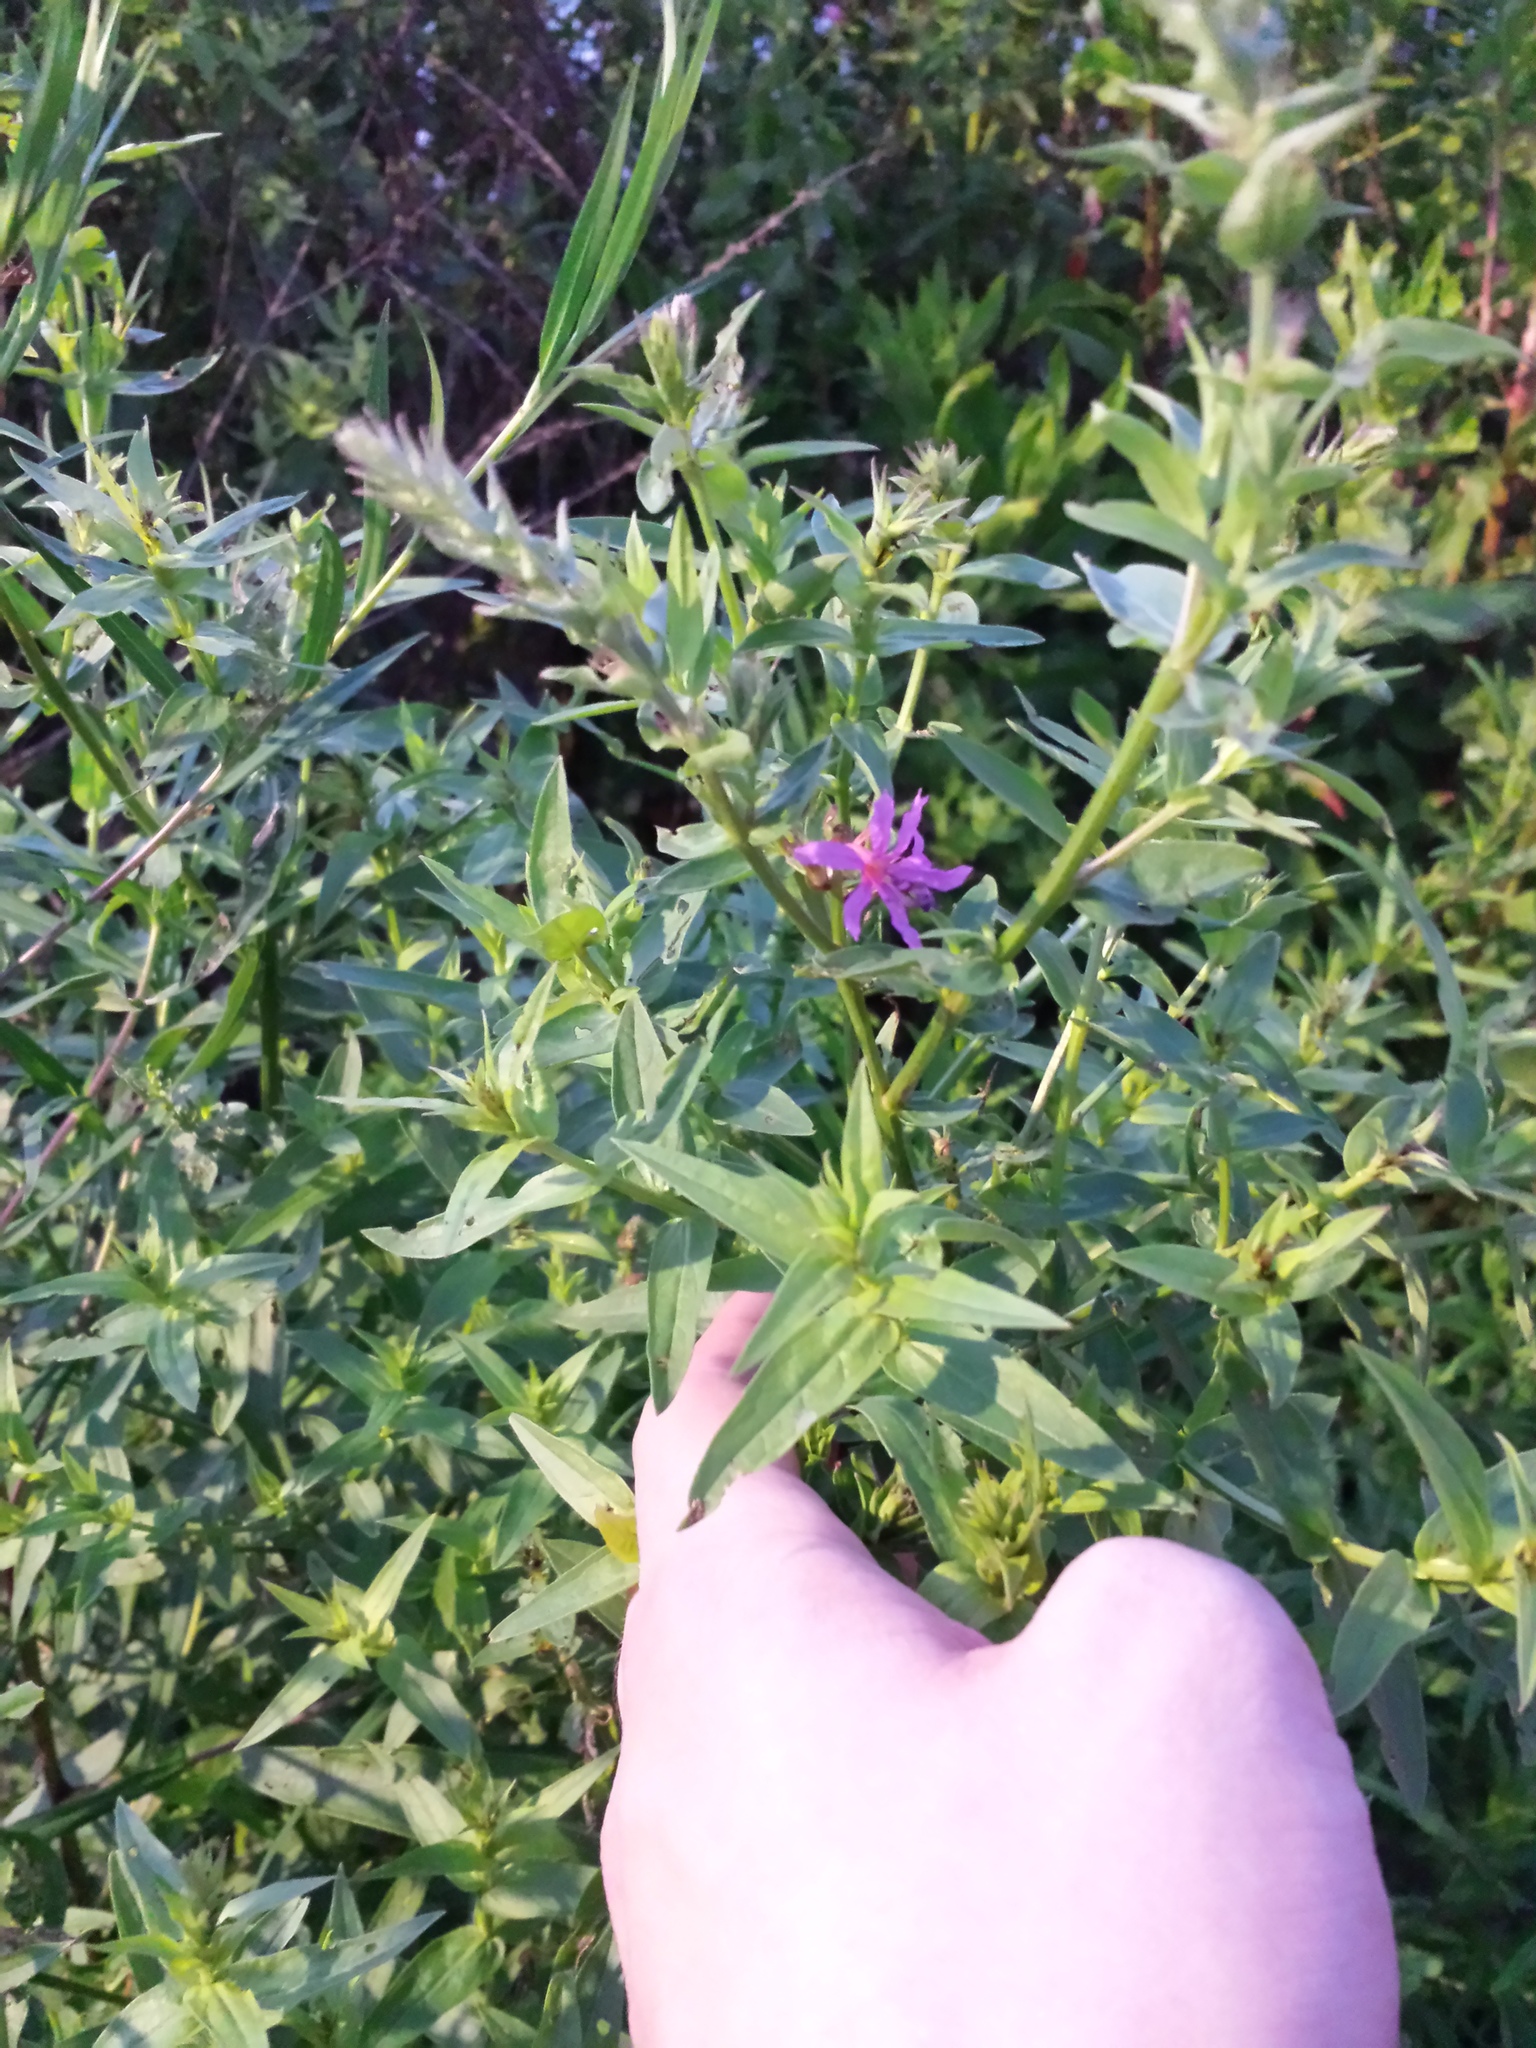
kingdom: Plantae
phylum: Tracheophyta
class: Magnoliopsida
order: Myrtales
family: Lythraceae
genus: Lythrum
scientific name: Lythrum salicaria
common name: Purple loosestrife
